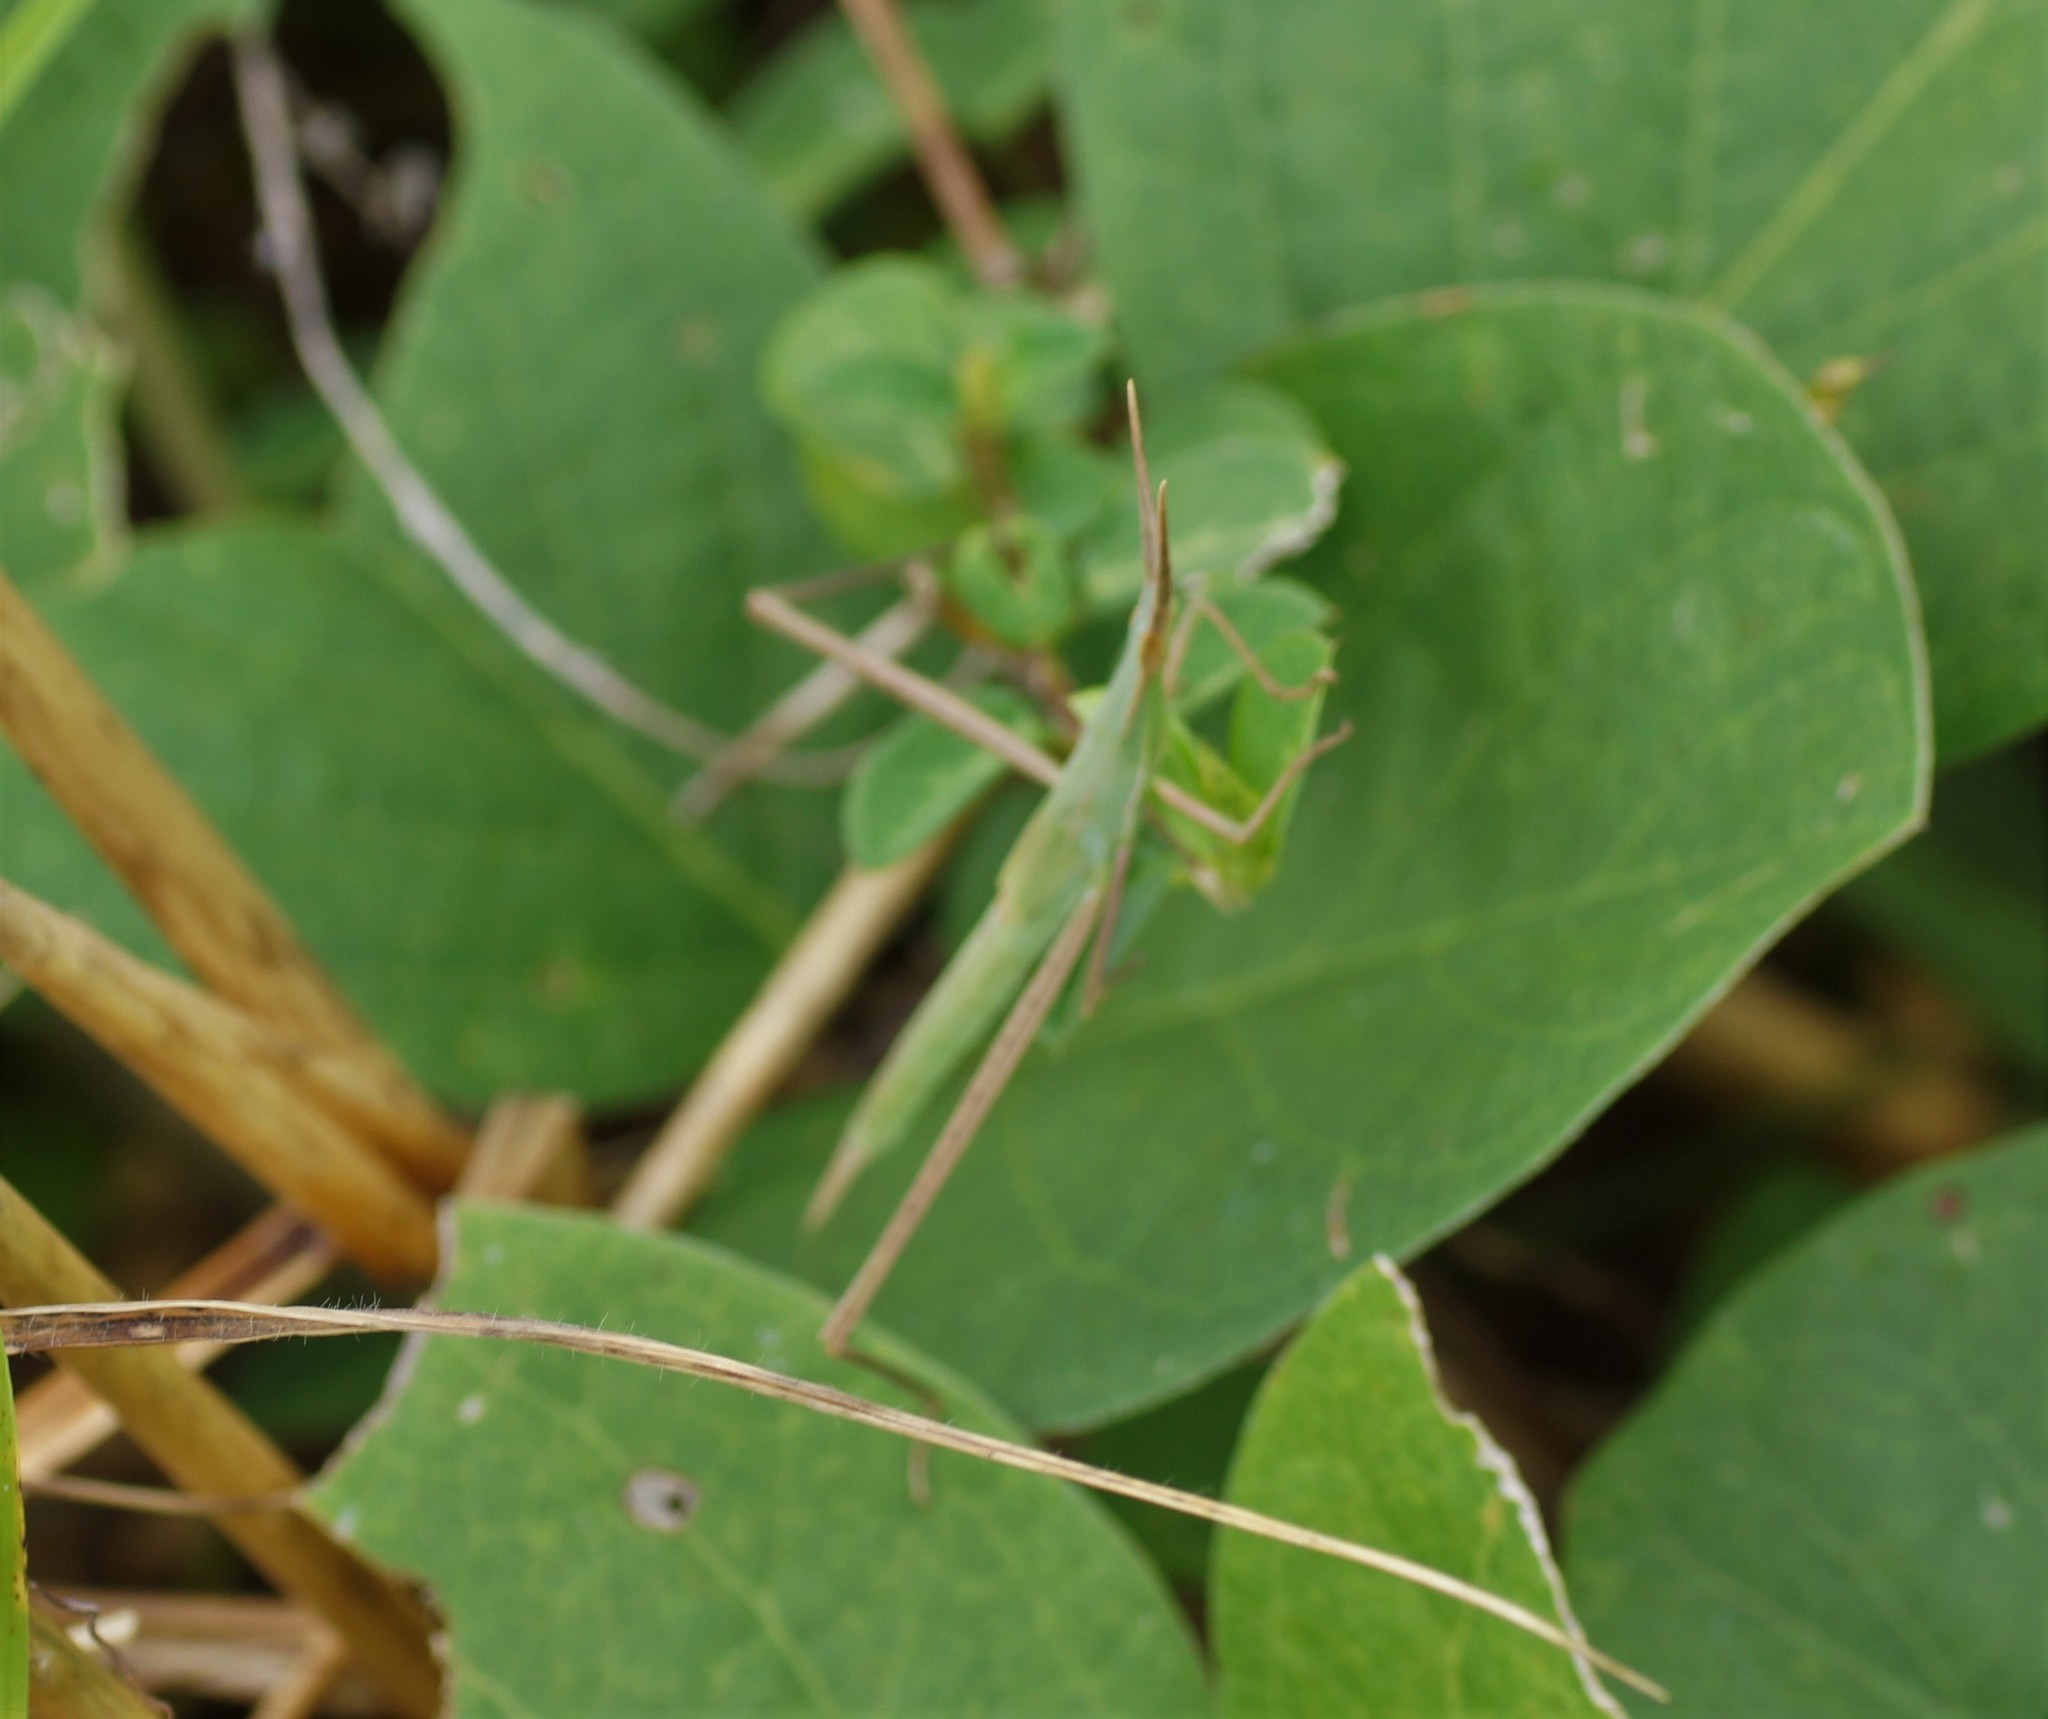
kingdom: Animalia
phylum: Arthropoda
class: Insecta
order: Orthoptera
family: Acrididae
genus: Acrida
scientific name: Acrida conica
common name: Giant green slantface
